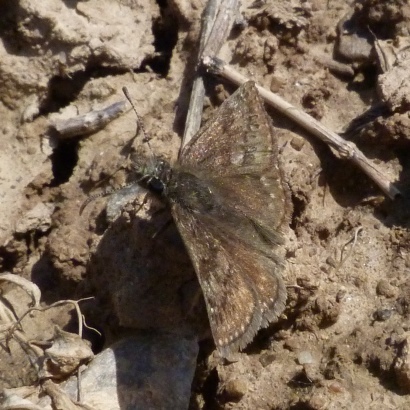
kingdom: Animalia
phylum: Arthropoda
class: Insecta
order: Lepidoptera
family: Hesperiidae
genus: Erynnis
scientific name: Erynnis tages
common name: Dingy skipper
